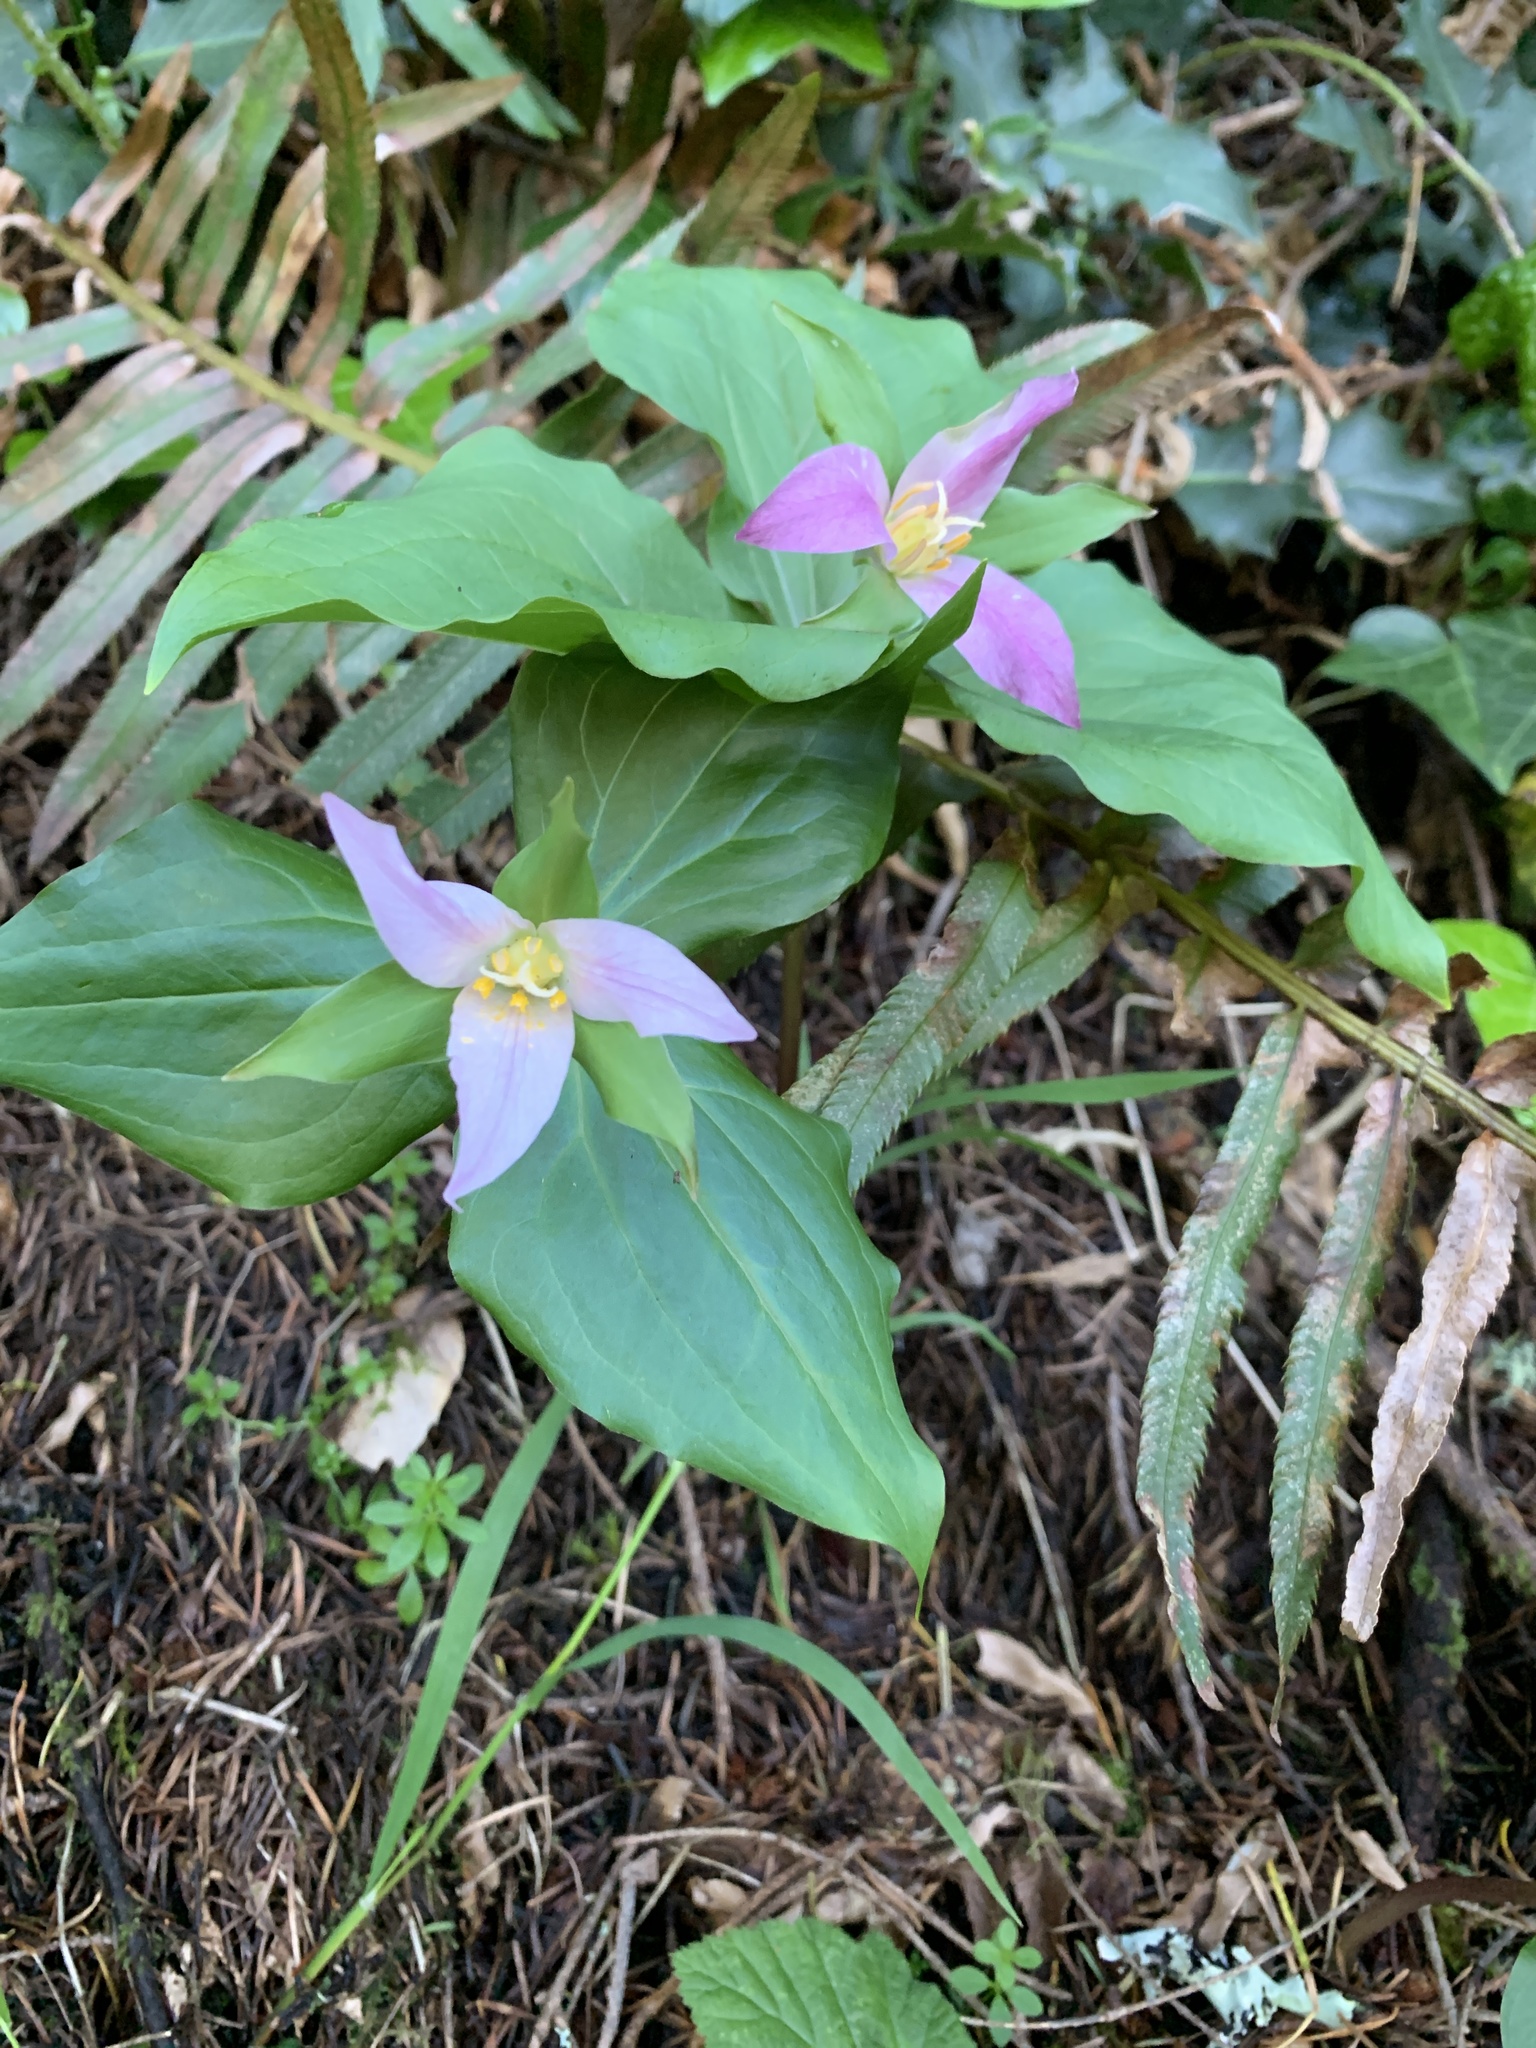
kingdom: Plantae
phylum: Tracheophyta
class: Liliopsida
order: Liliales
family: Melanthiaceae
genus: Trillium
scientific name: Trillium ovatum
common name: Pacific trillium
